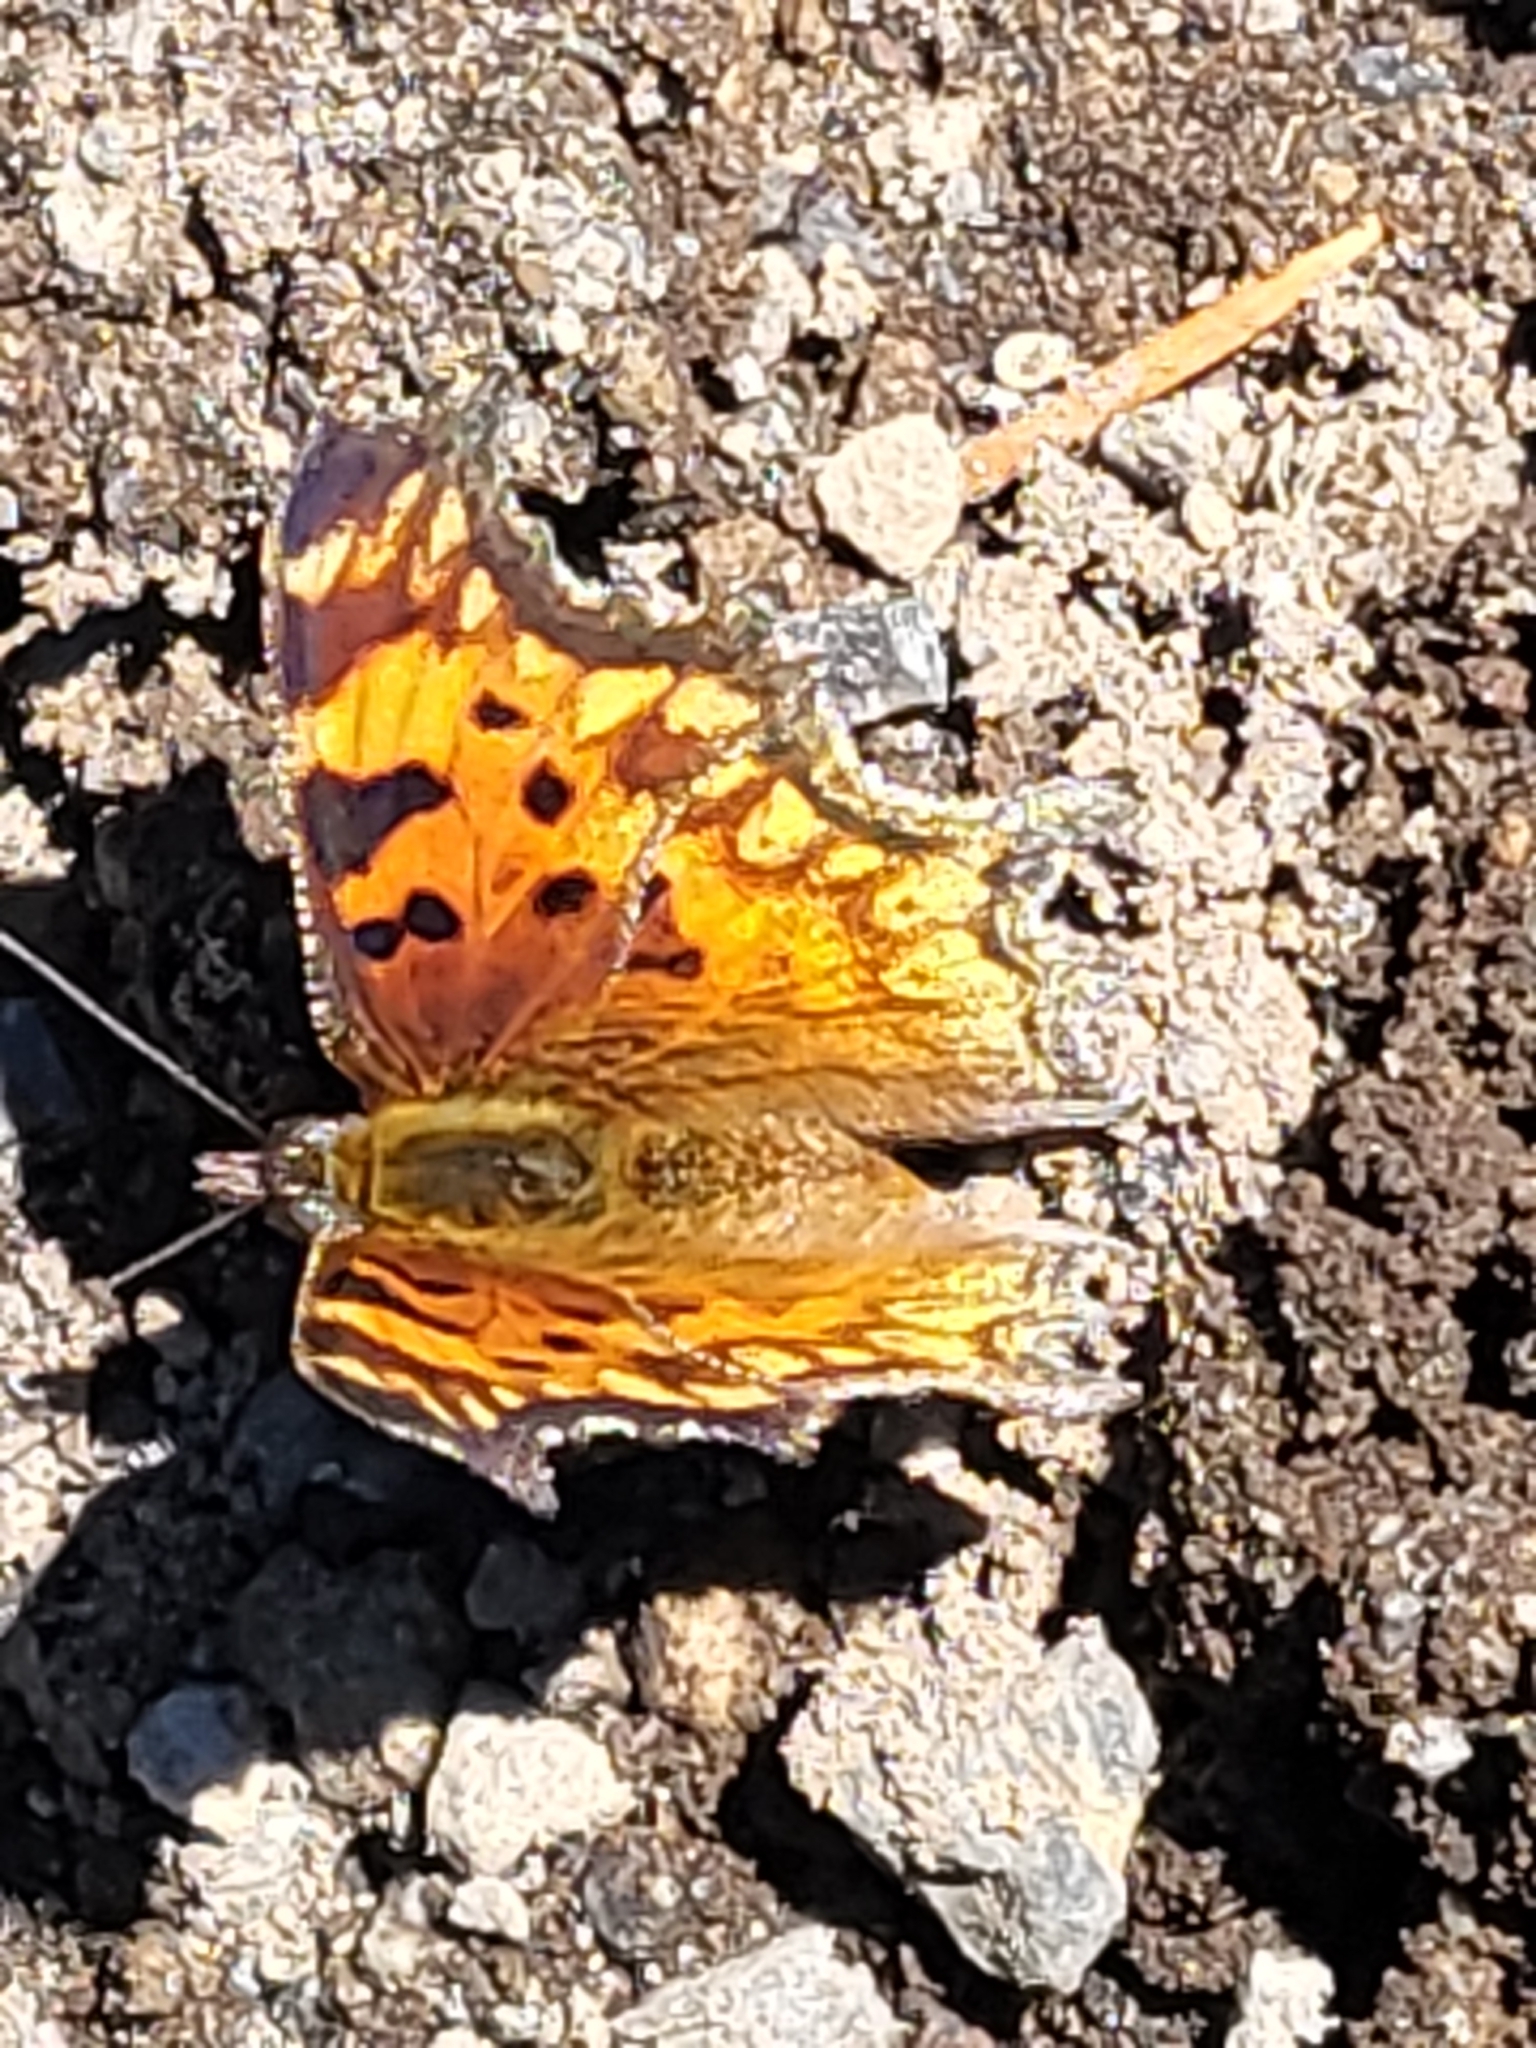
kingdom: Animalia
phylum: Arthropoda
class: Insecta
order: Lepidoptera
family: Nymphalidae
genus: Polygonia
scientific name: Polygonia gracilis
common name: Hoary comma
